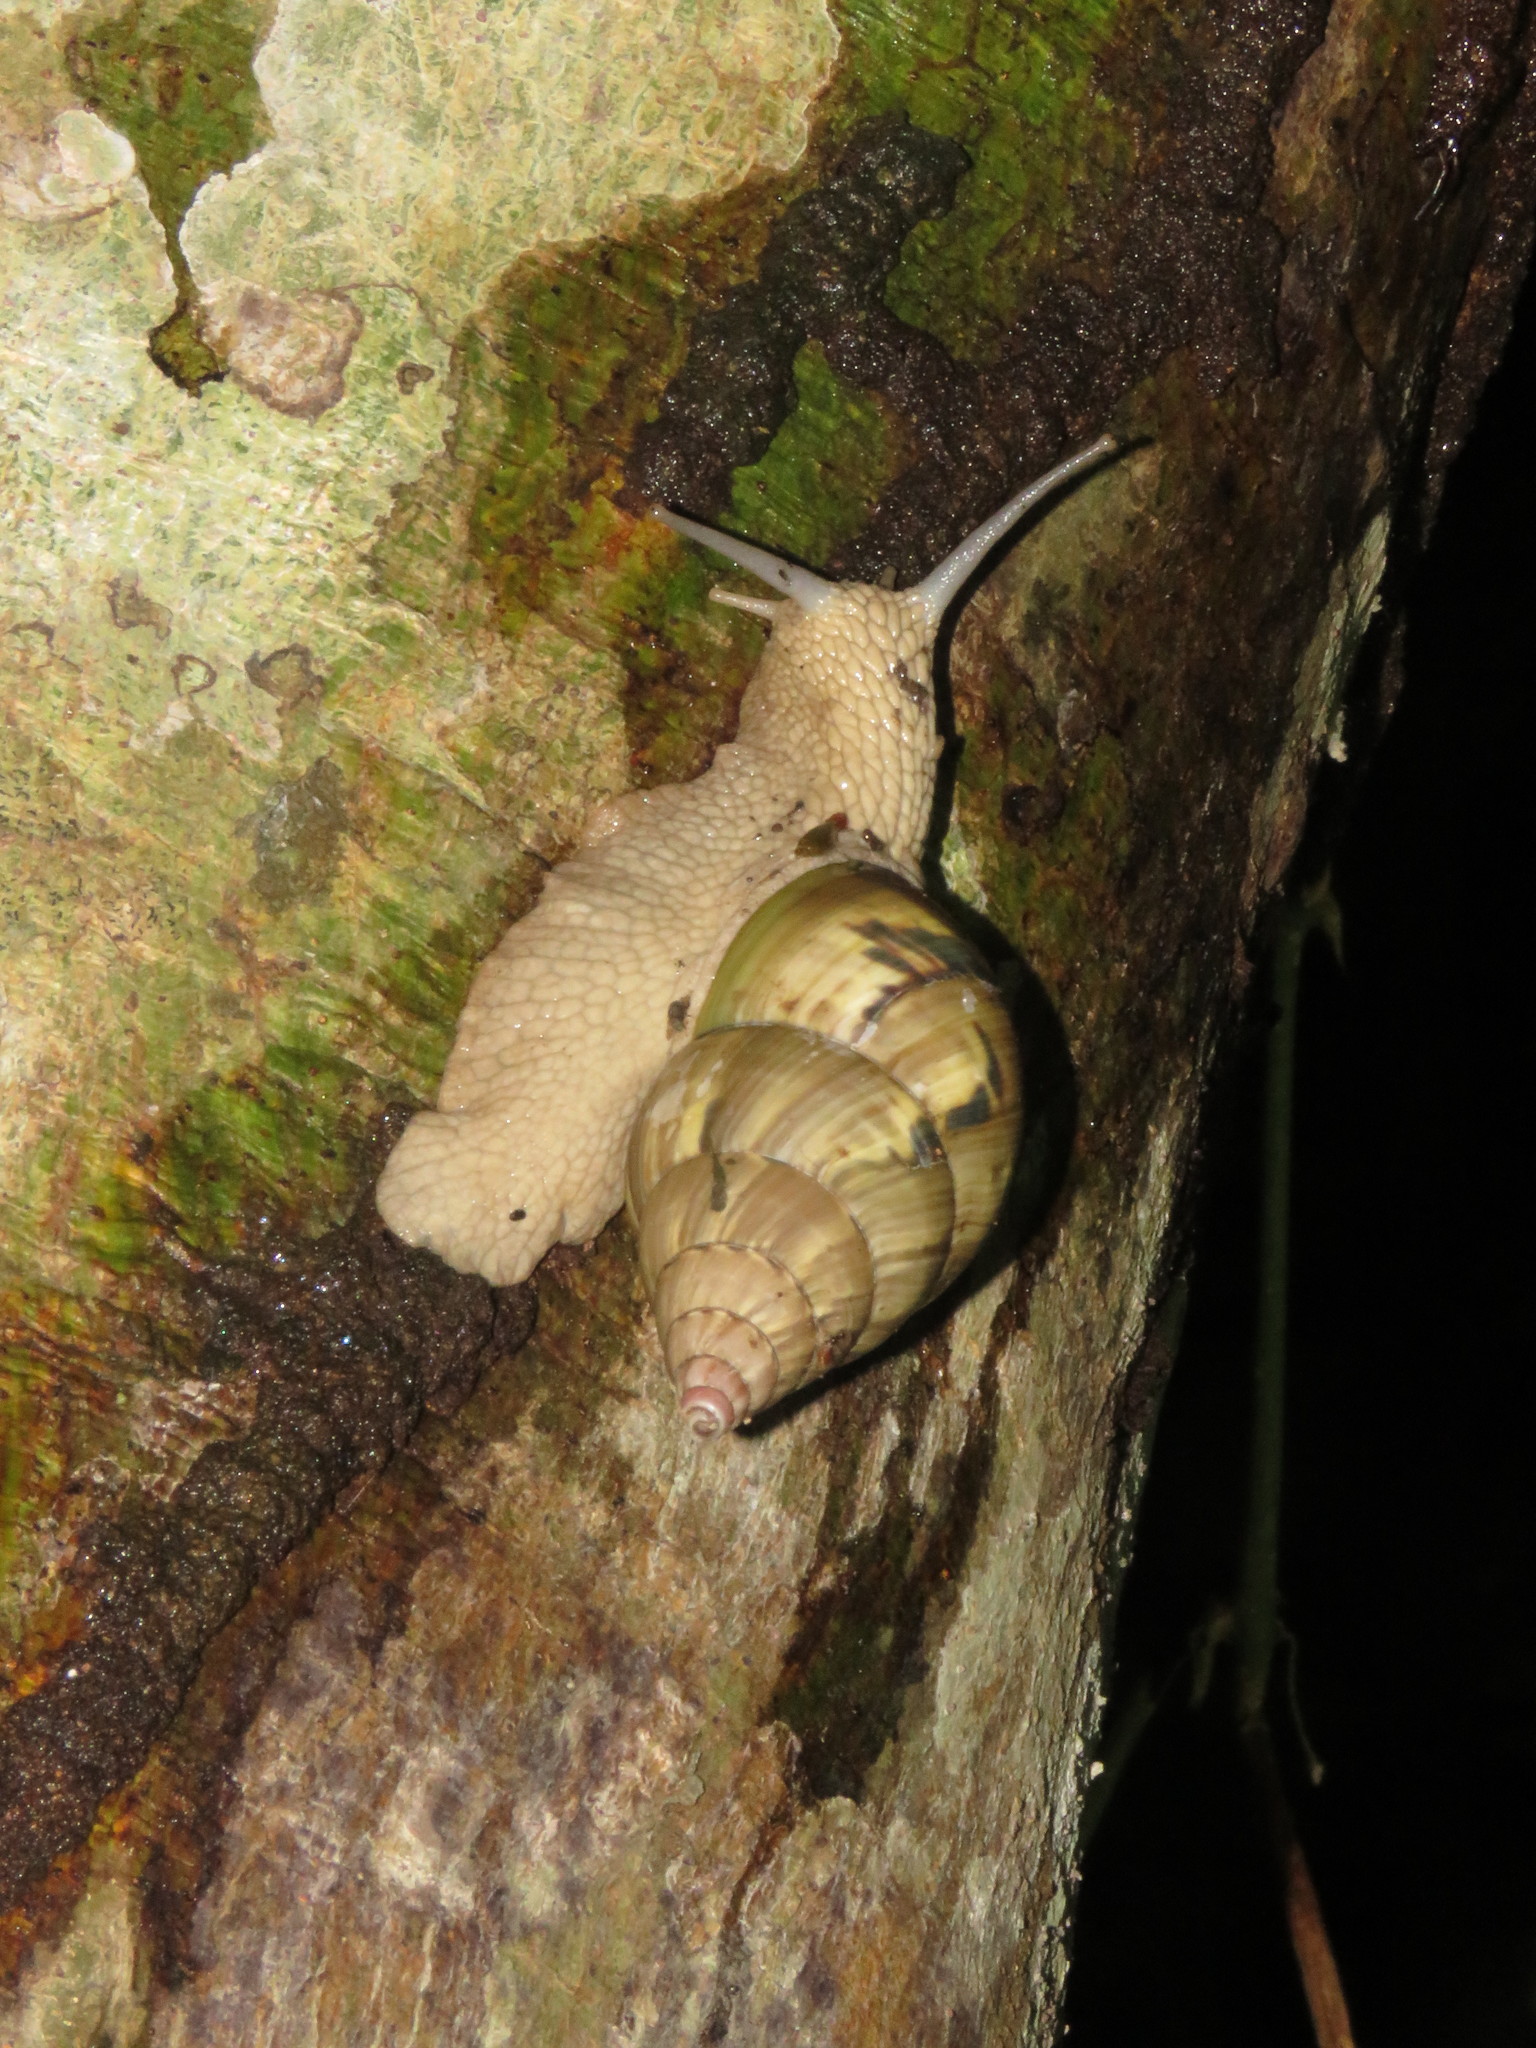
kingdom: Animalia
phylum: Mollusca
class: Gastropoda
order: Stylommatophora
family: Orthalicidae
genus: Corona
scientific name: Corona incisa
